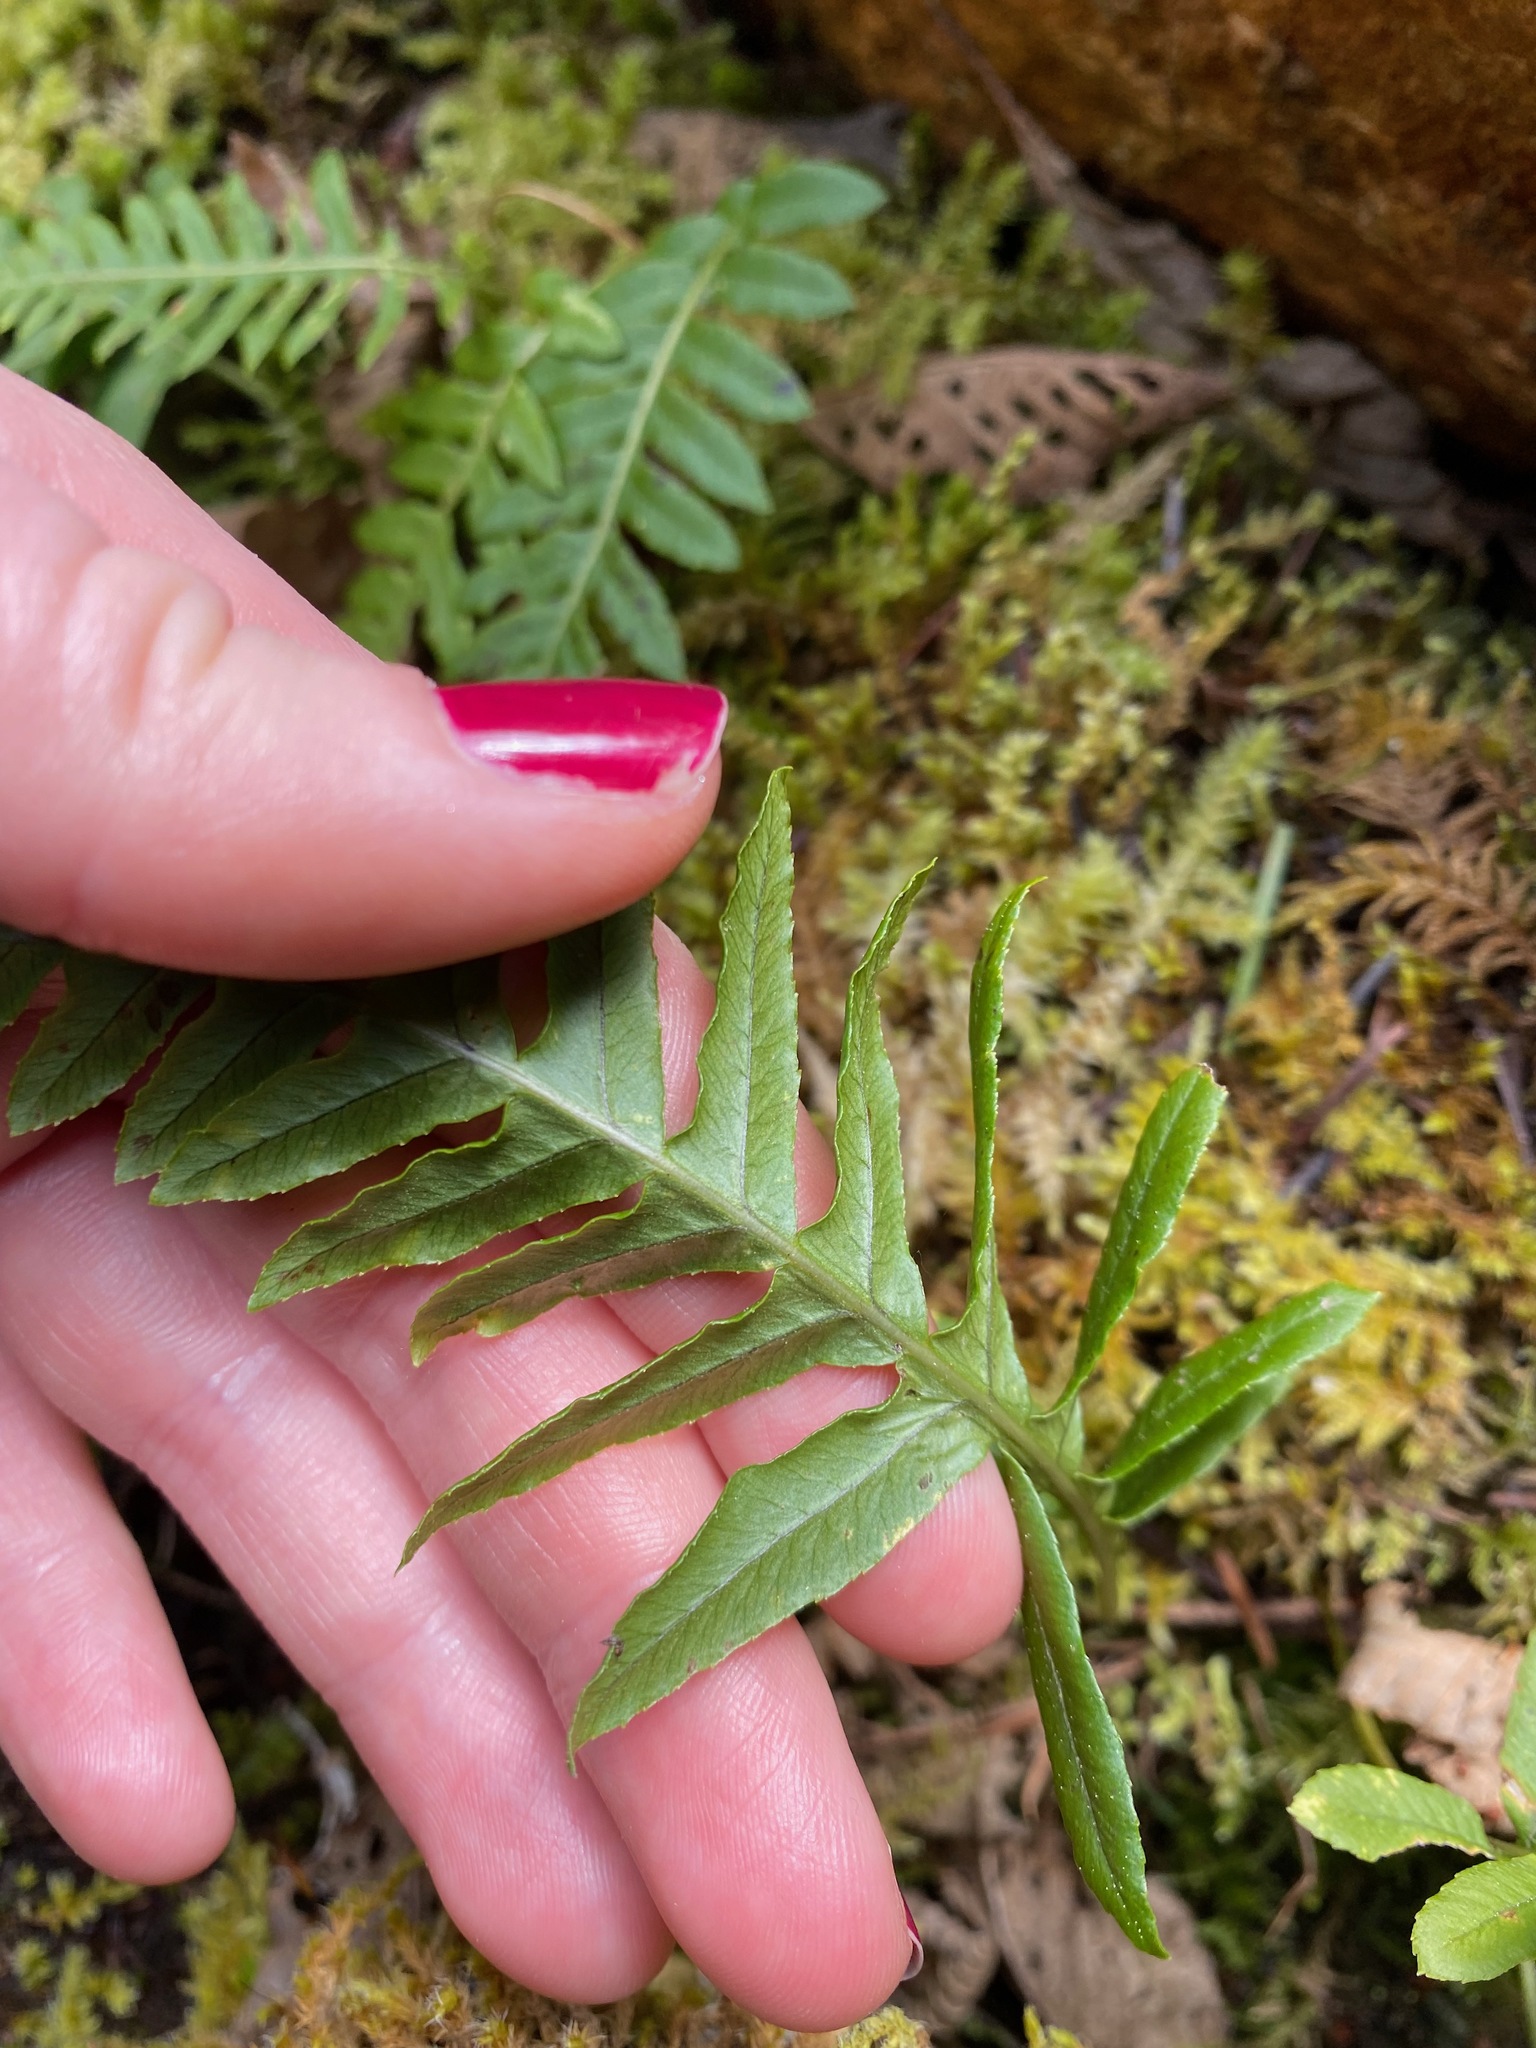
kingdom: Plantae
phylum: Tracheophyta
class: Polypodiopsida
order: Polypodiales
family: Polypodiaceae
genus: Polypodium
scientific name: Polypodium glycyrrhiza
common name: Licorice fern
